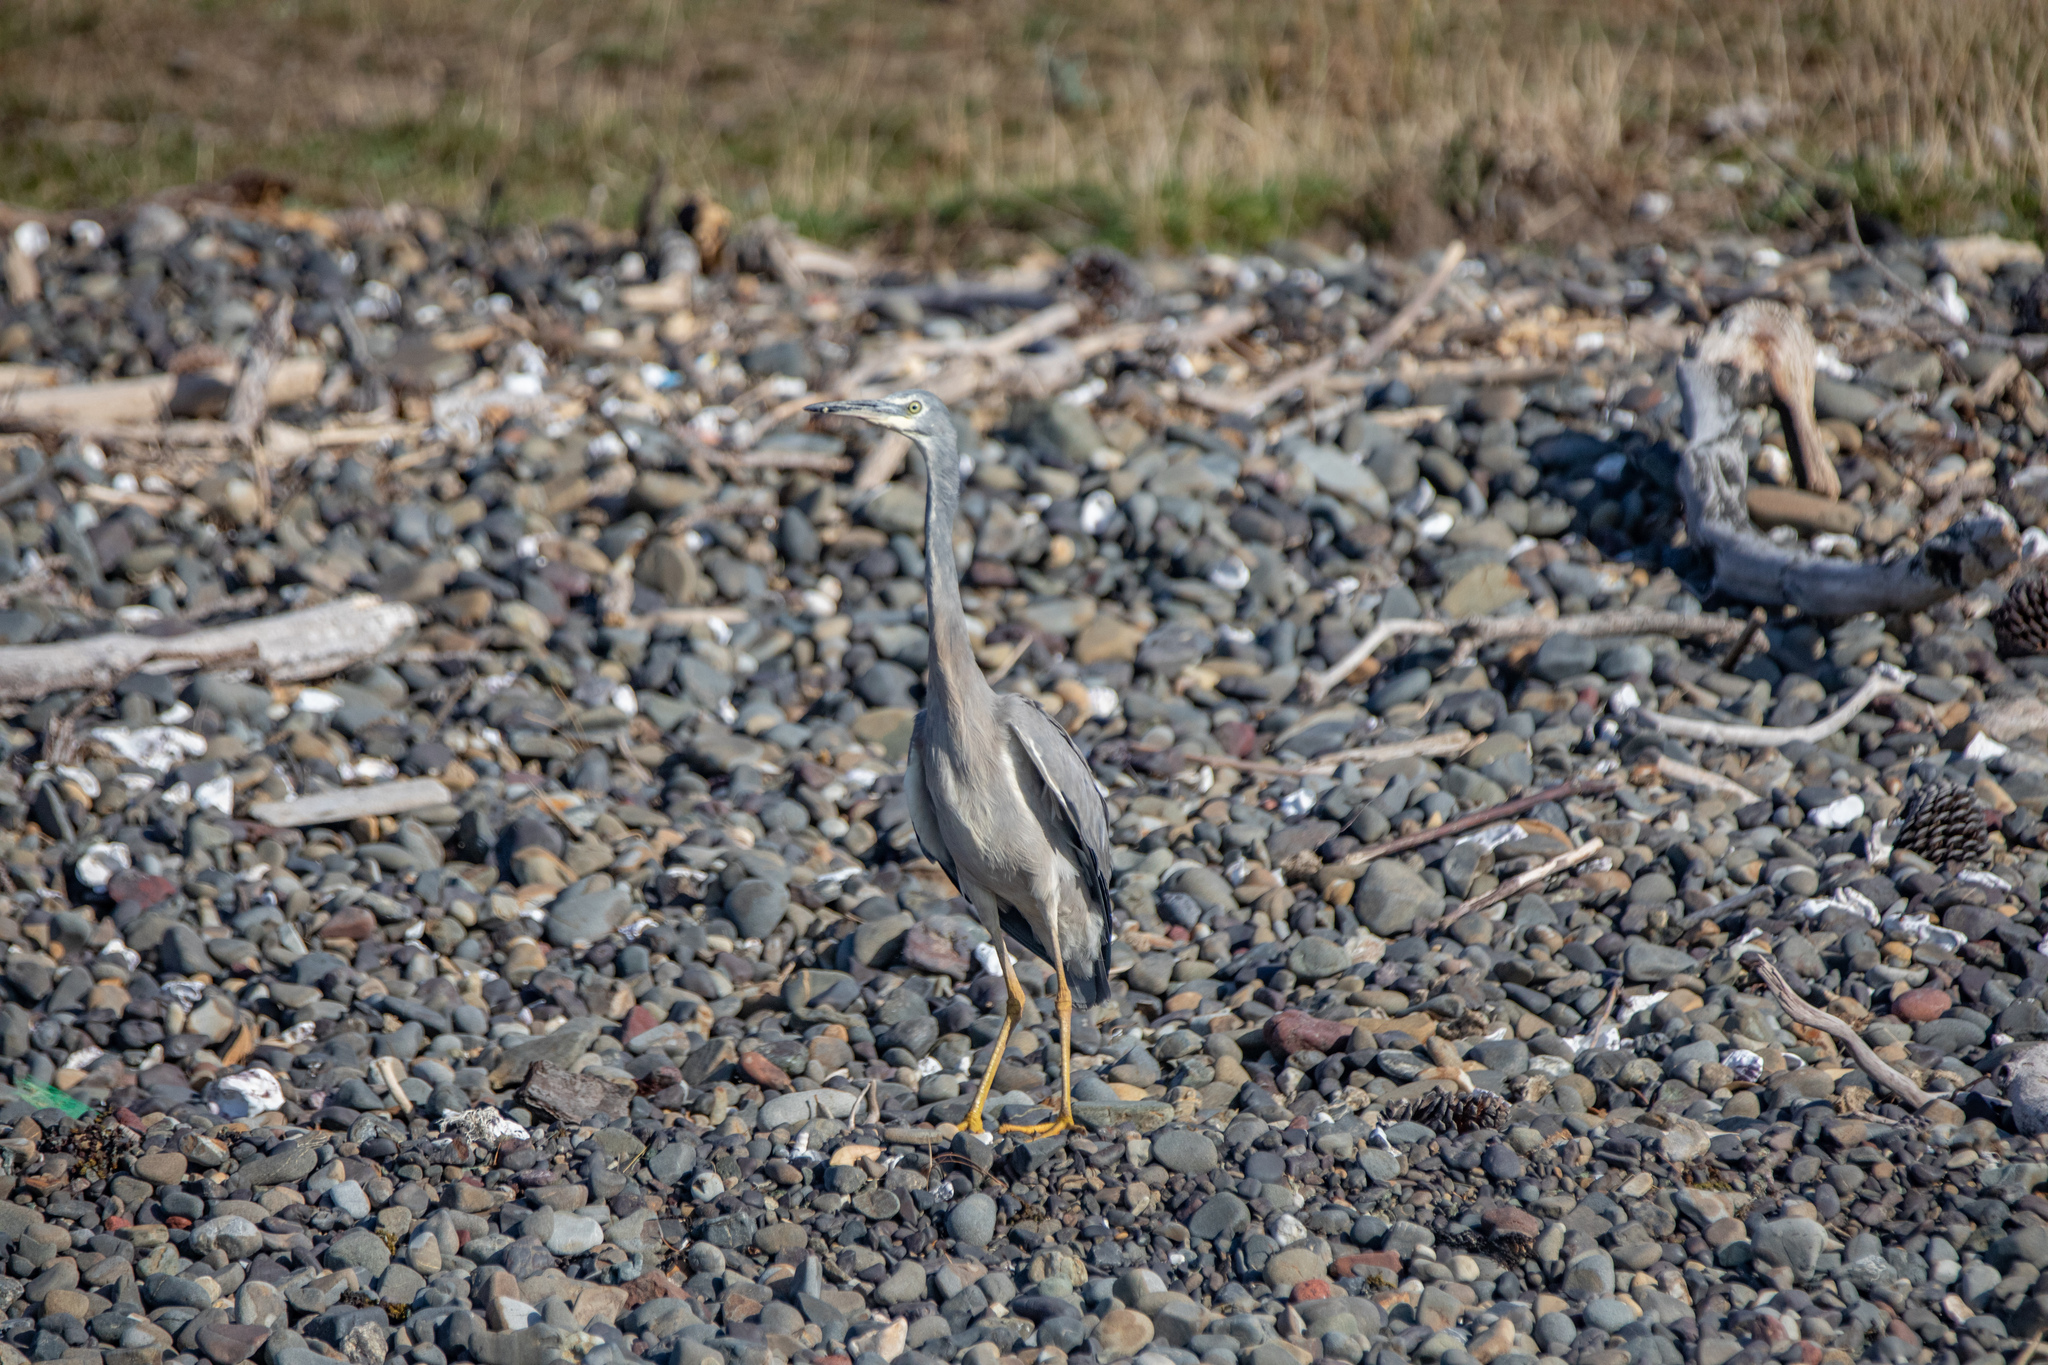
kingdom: Animalia
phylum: Chordata
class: Aves
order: Pelecaniformes
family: Ardeidae
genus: Egretta
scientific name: Egretta novaehollandiae
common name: White-faced heron
